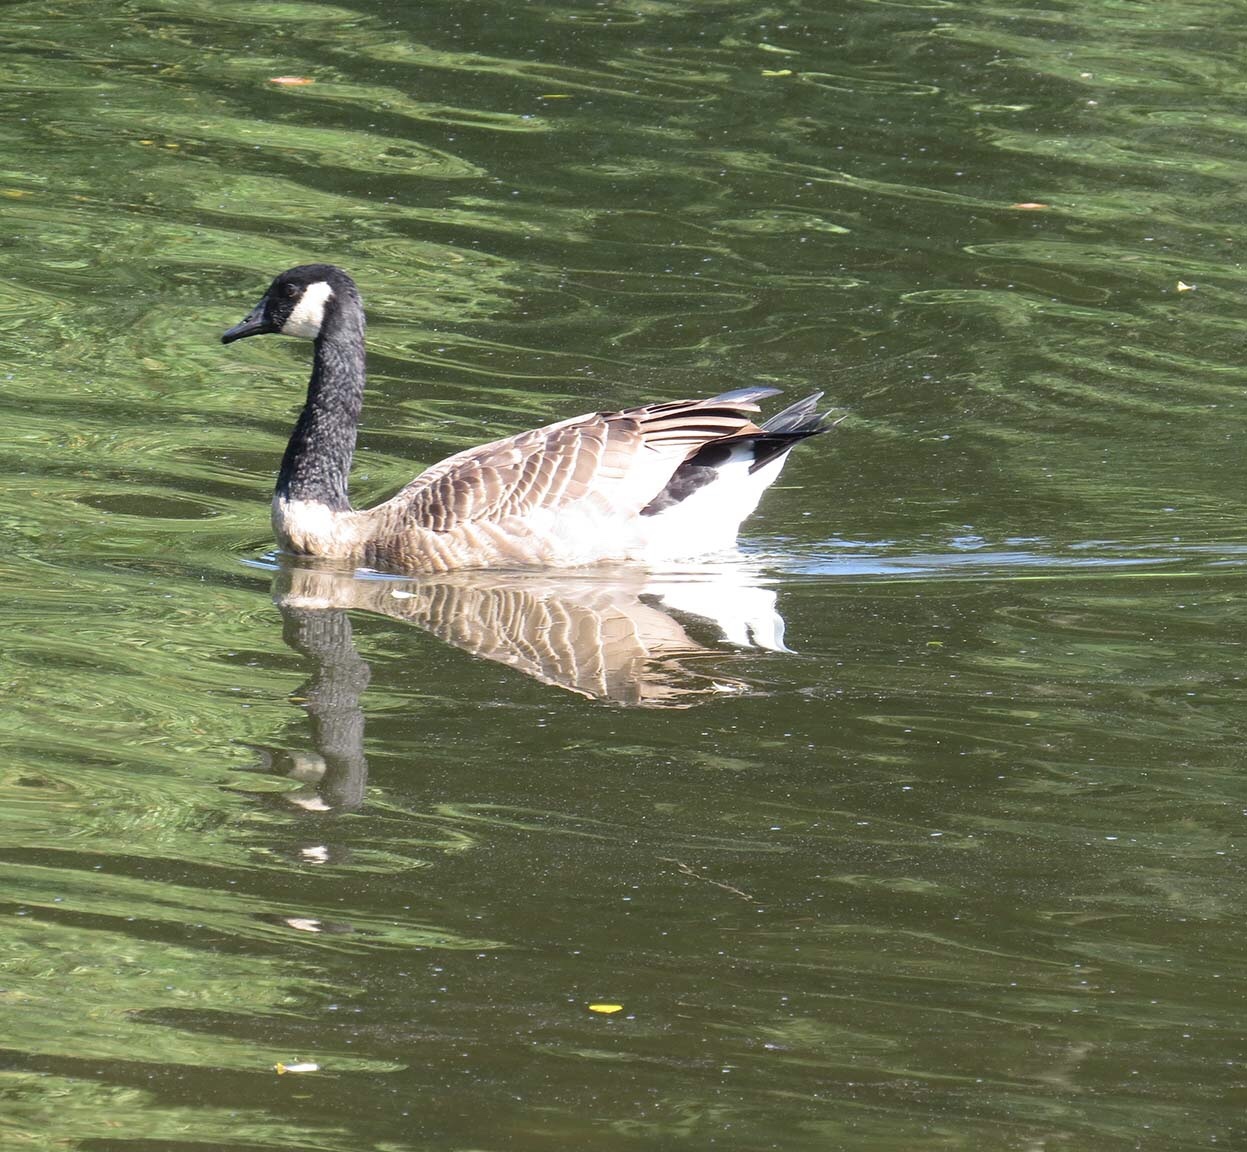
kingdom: Animalia
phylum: Chordata
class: Aves
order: Anseriformes
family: Anatidae
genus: Branta
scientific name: Branta canadensis
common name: Canada goose
